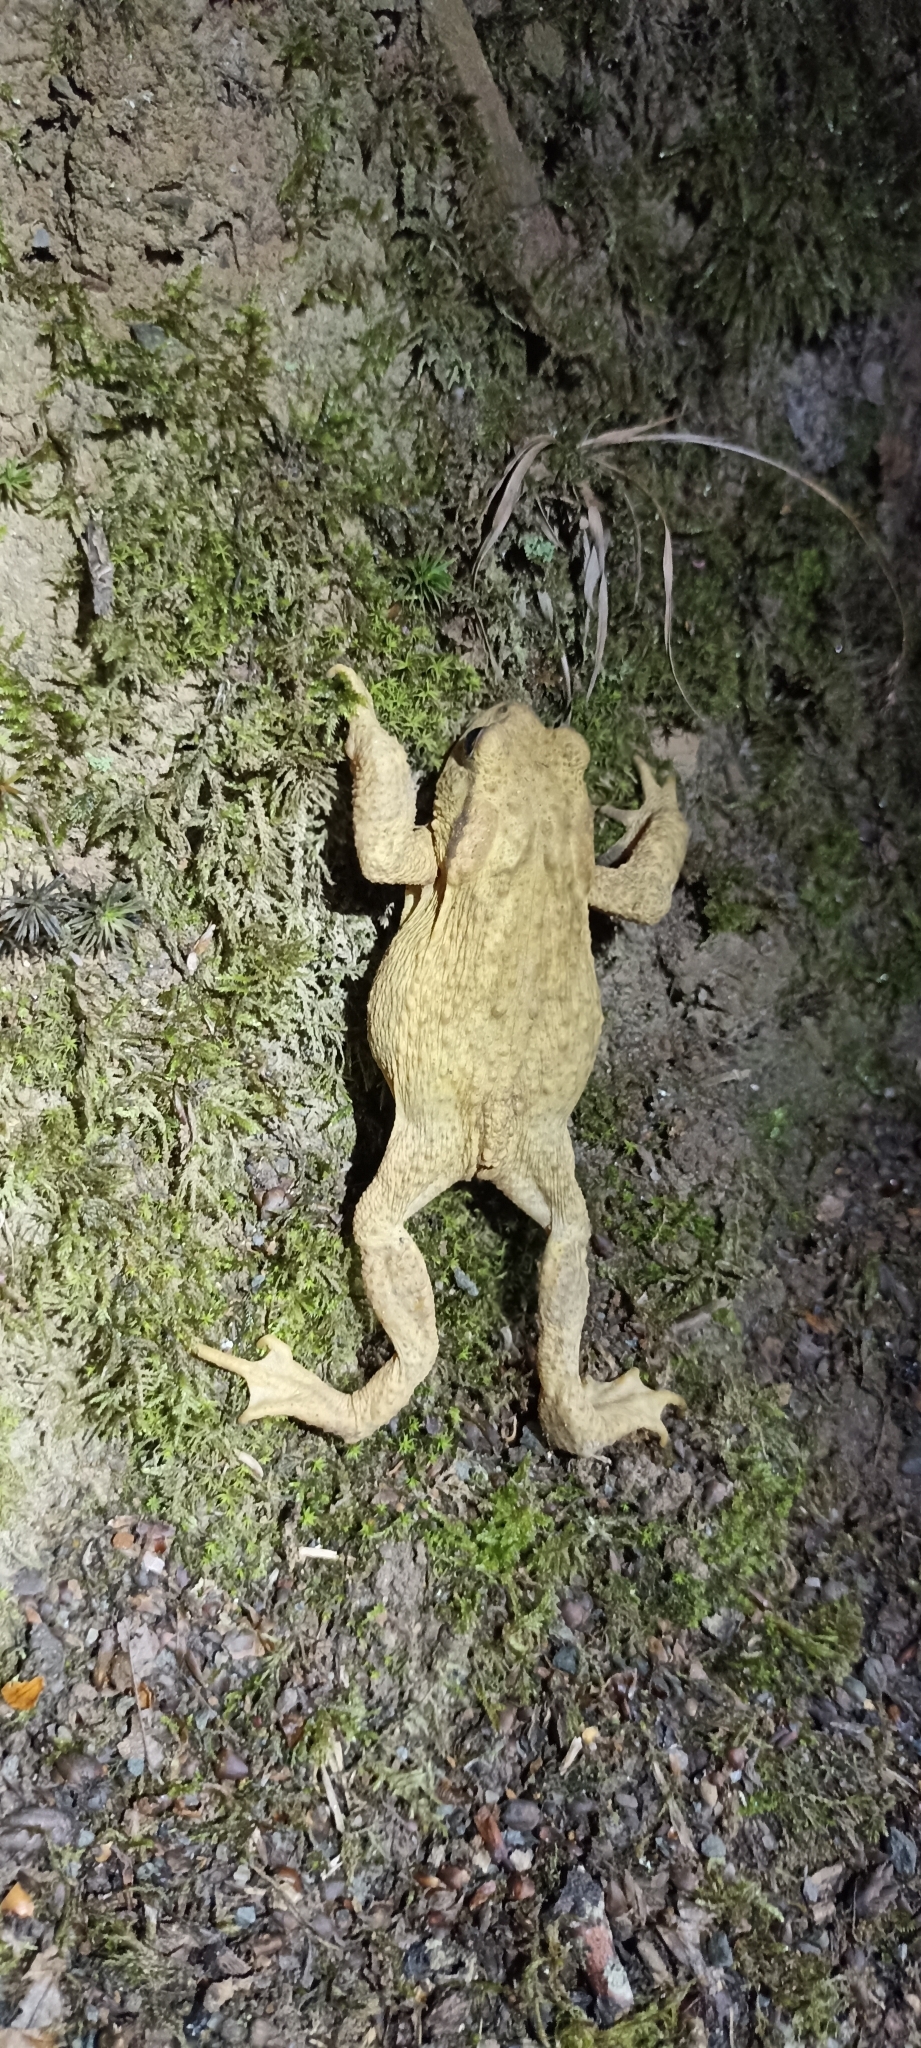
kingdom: Animalia
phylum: Chordata
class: Amphibia
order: Anura
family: Bufonidae
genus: Bufo
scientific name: Bufo spinosus
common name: Western common toad
